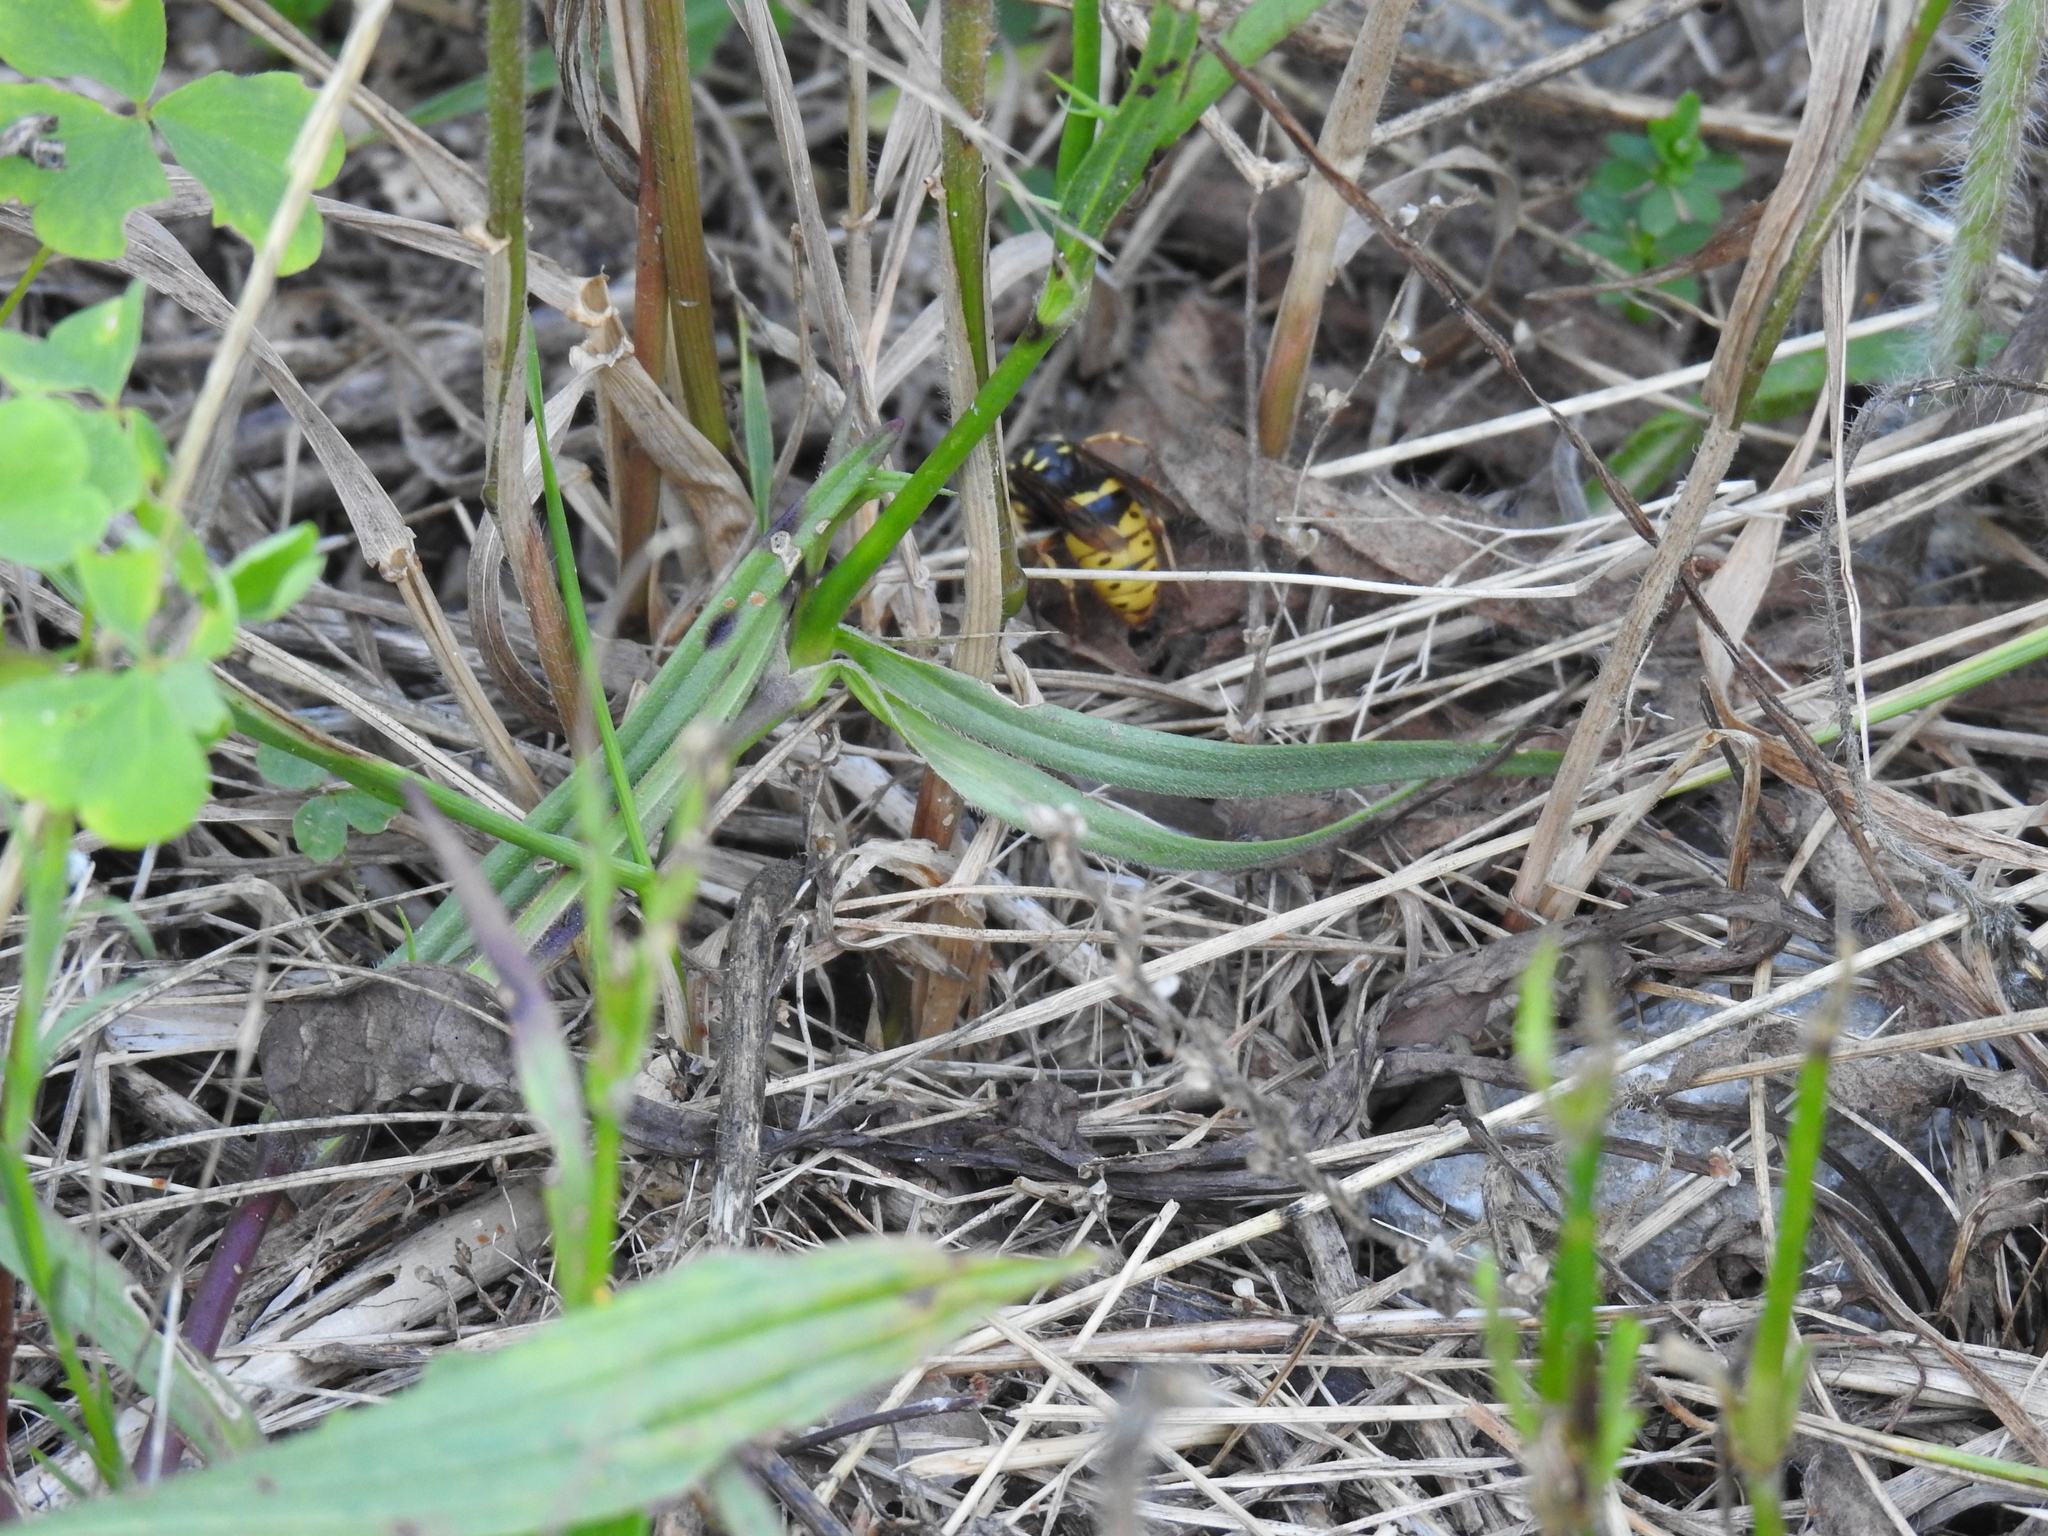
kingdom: Animalia
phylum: Arthropoda
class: Insecta
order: Hymenoptera
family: Vespidae
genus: Vespula
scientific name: Vespula flavopilosa
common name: Downy yellowjacket
